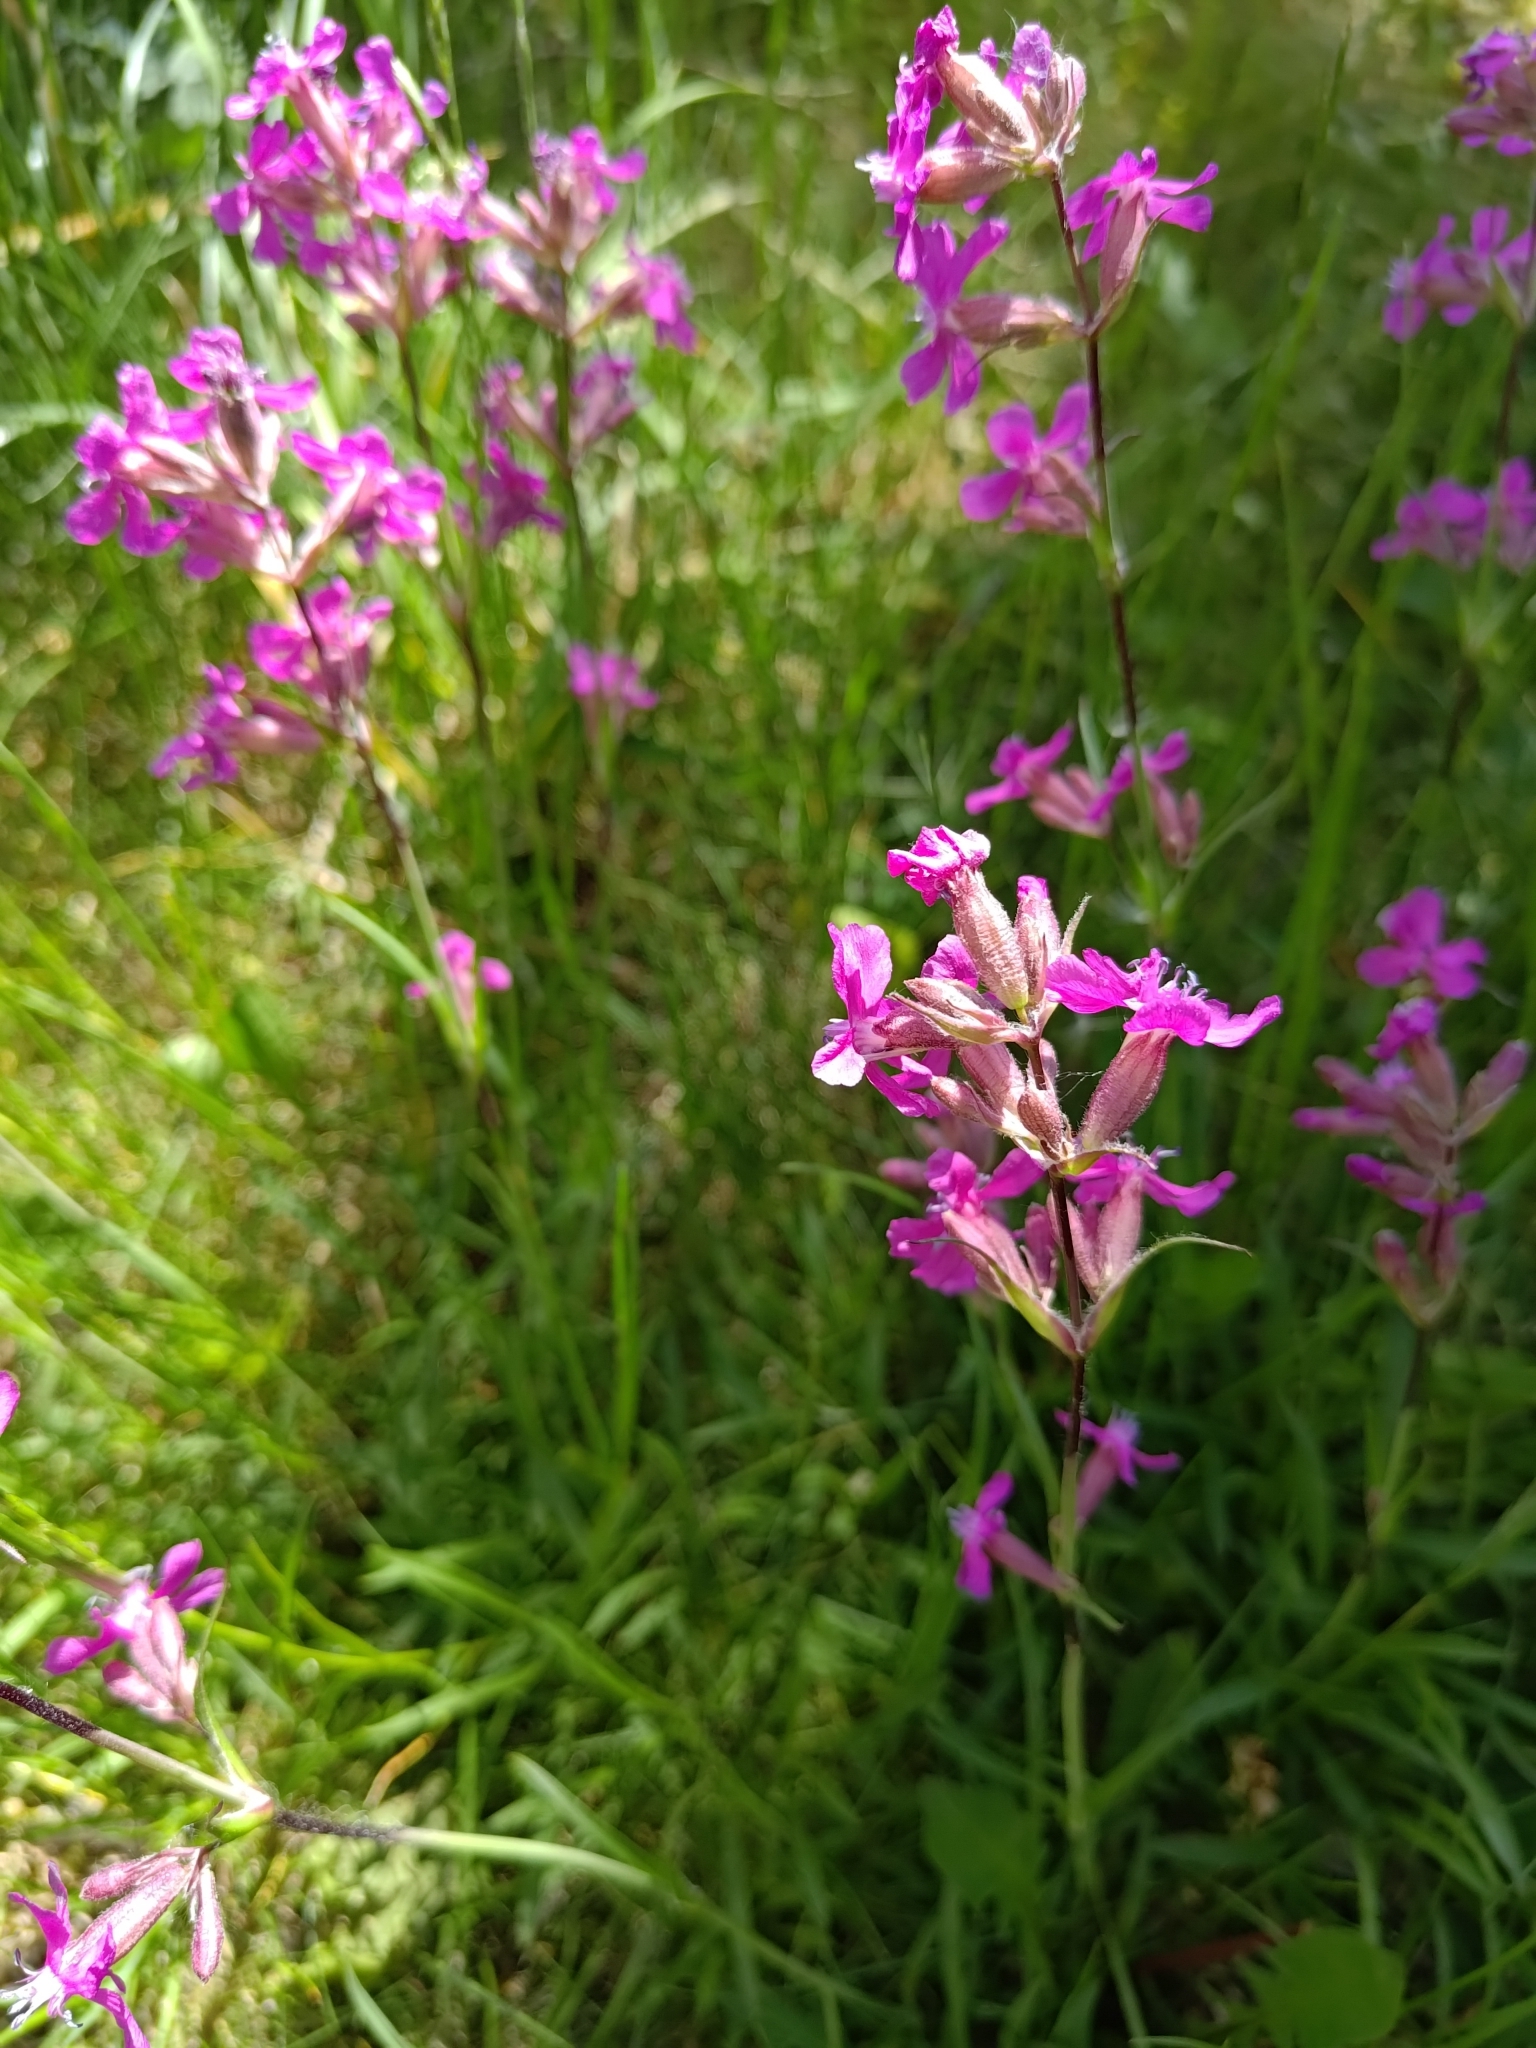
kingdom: Plantae
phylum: Tracheophyta
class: Magnoliopsida
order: Caryophyllales
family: Caryophyllaceae
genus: Viscaria
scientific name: Viscaria vulgaris
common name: Clammy campion
